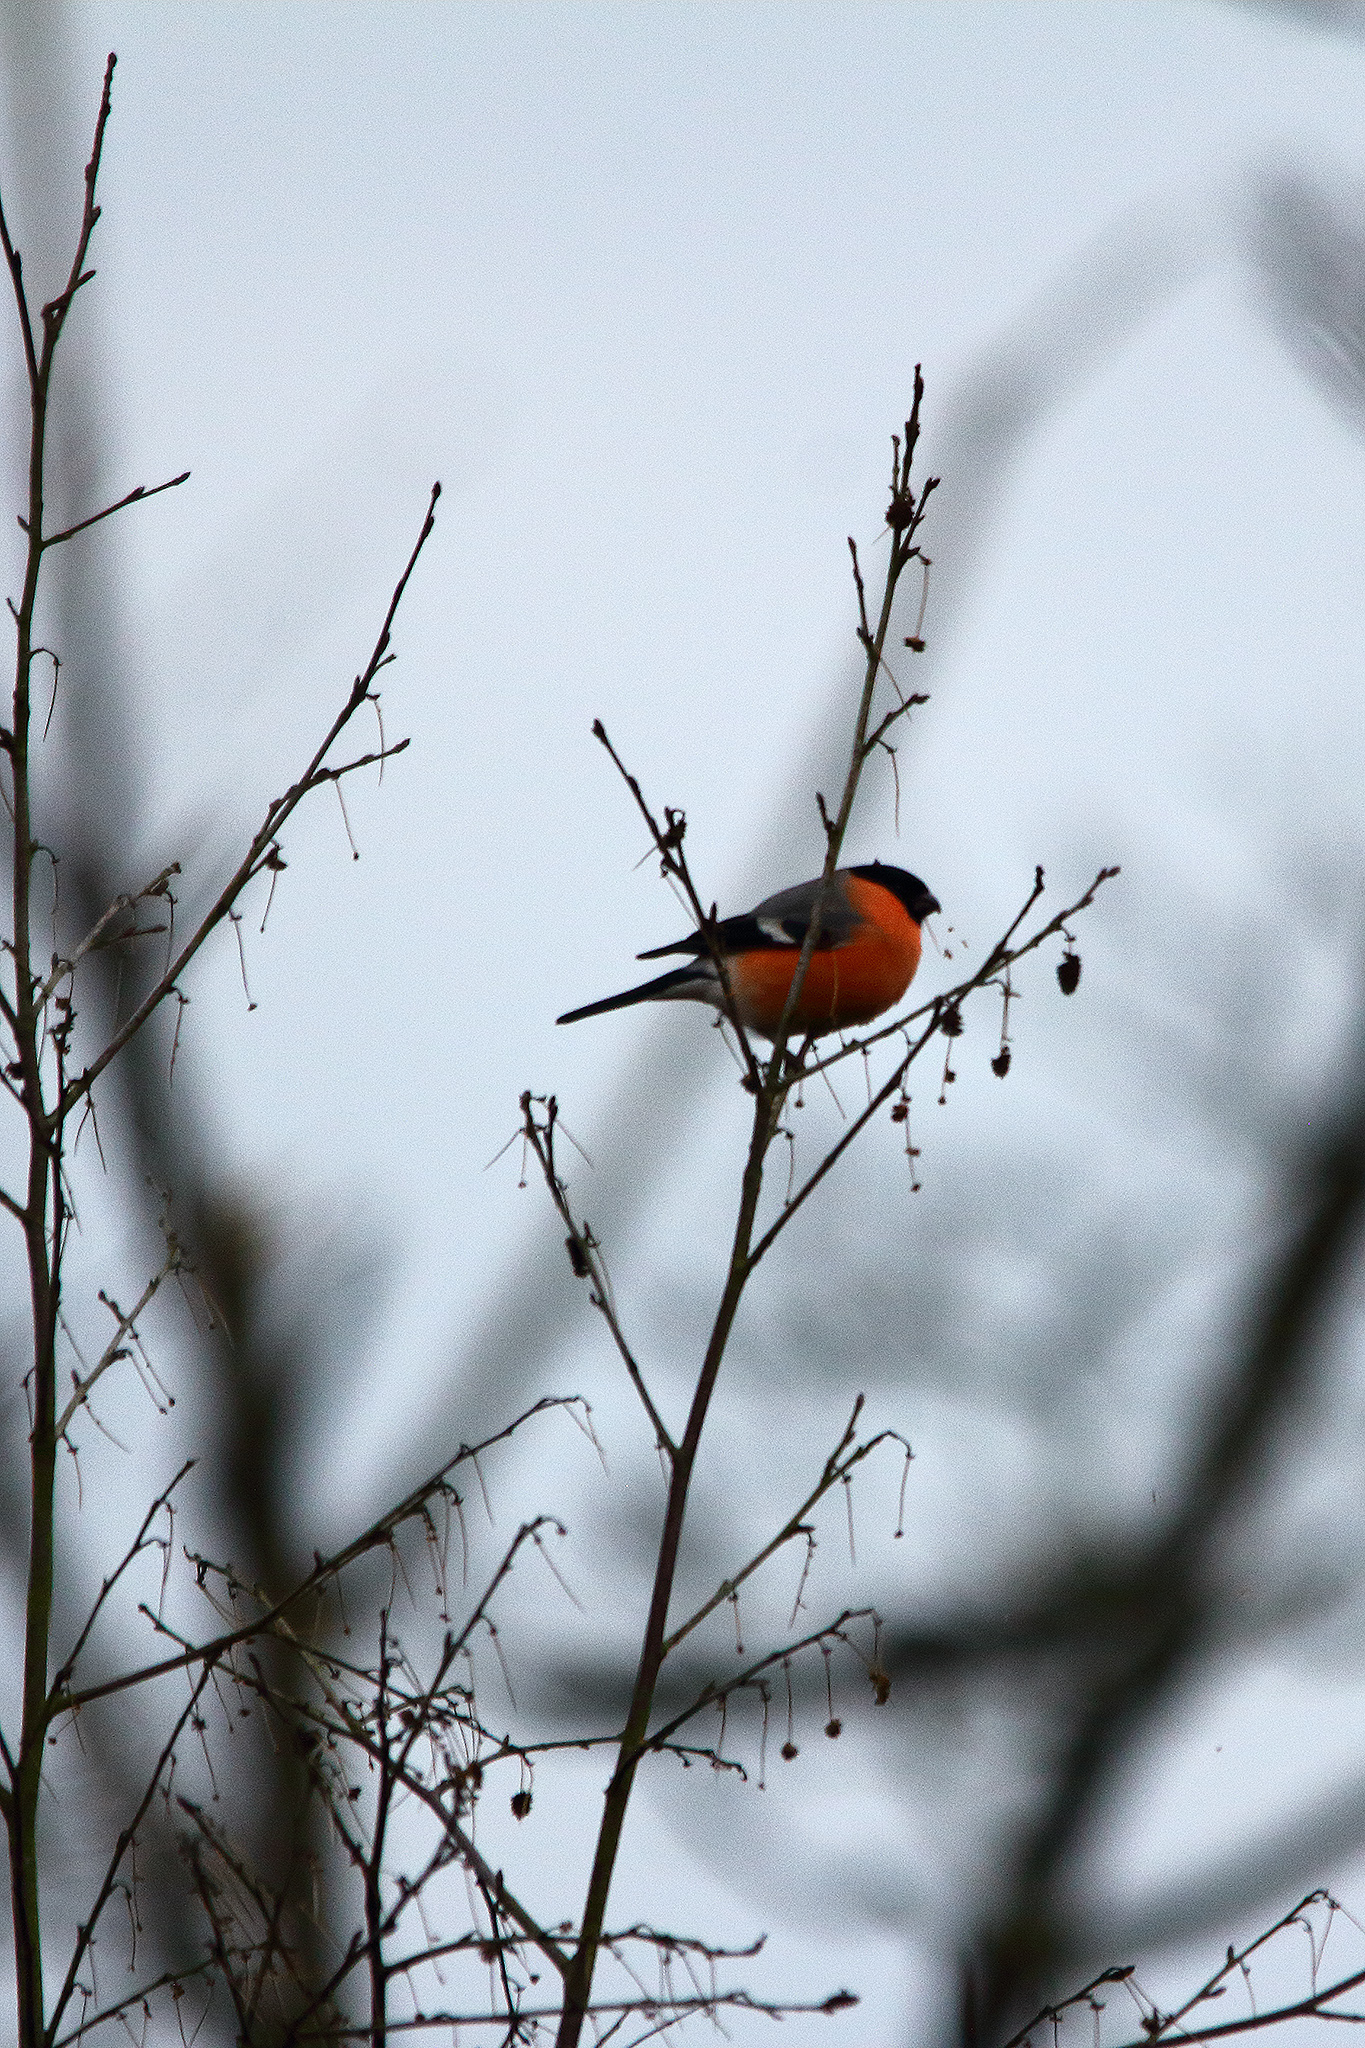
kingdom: Animalia
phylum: Chordata
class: Aves
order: Passeriformes
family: Fringillidae
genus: Pyrrhula
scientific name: Pyrrhula pyrrhula
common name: Eurasian bullfinch
